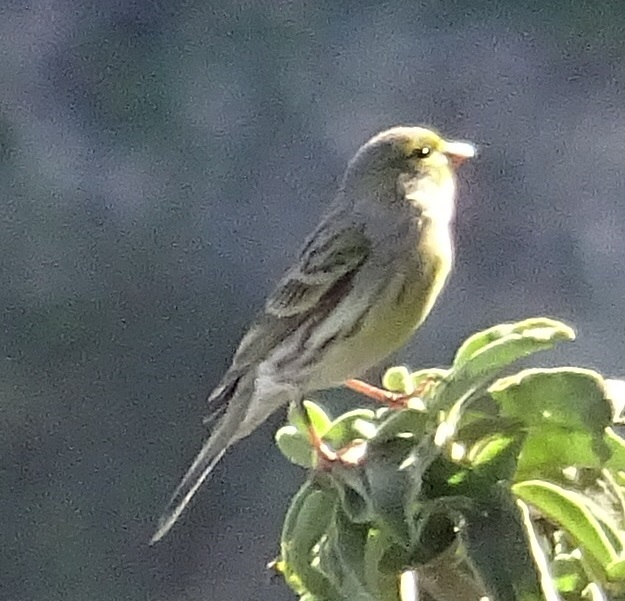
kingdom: Animalia
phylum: Chordata
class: Aves
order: Passeriformes
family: Fringillidae
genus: Serinus
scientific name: Serinus canaria
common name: Atlantic canary
